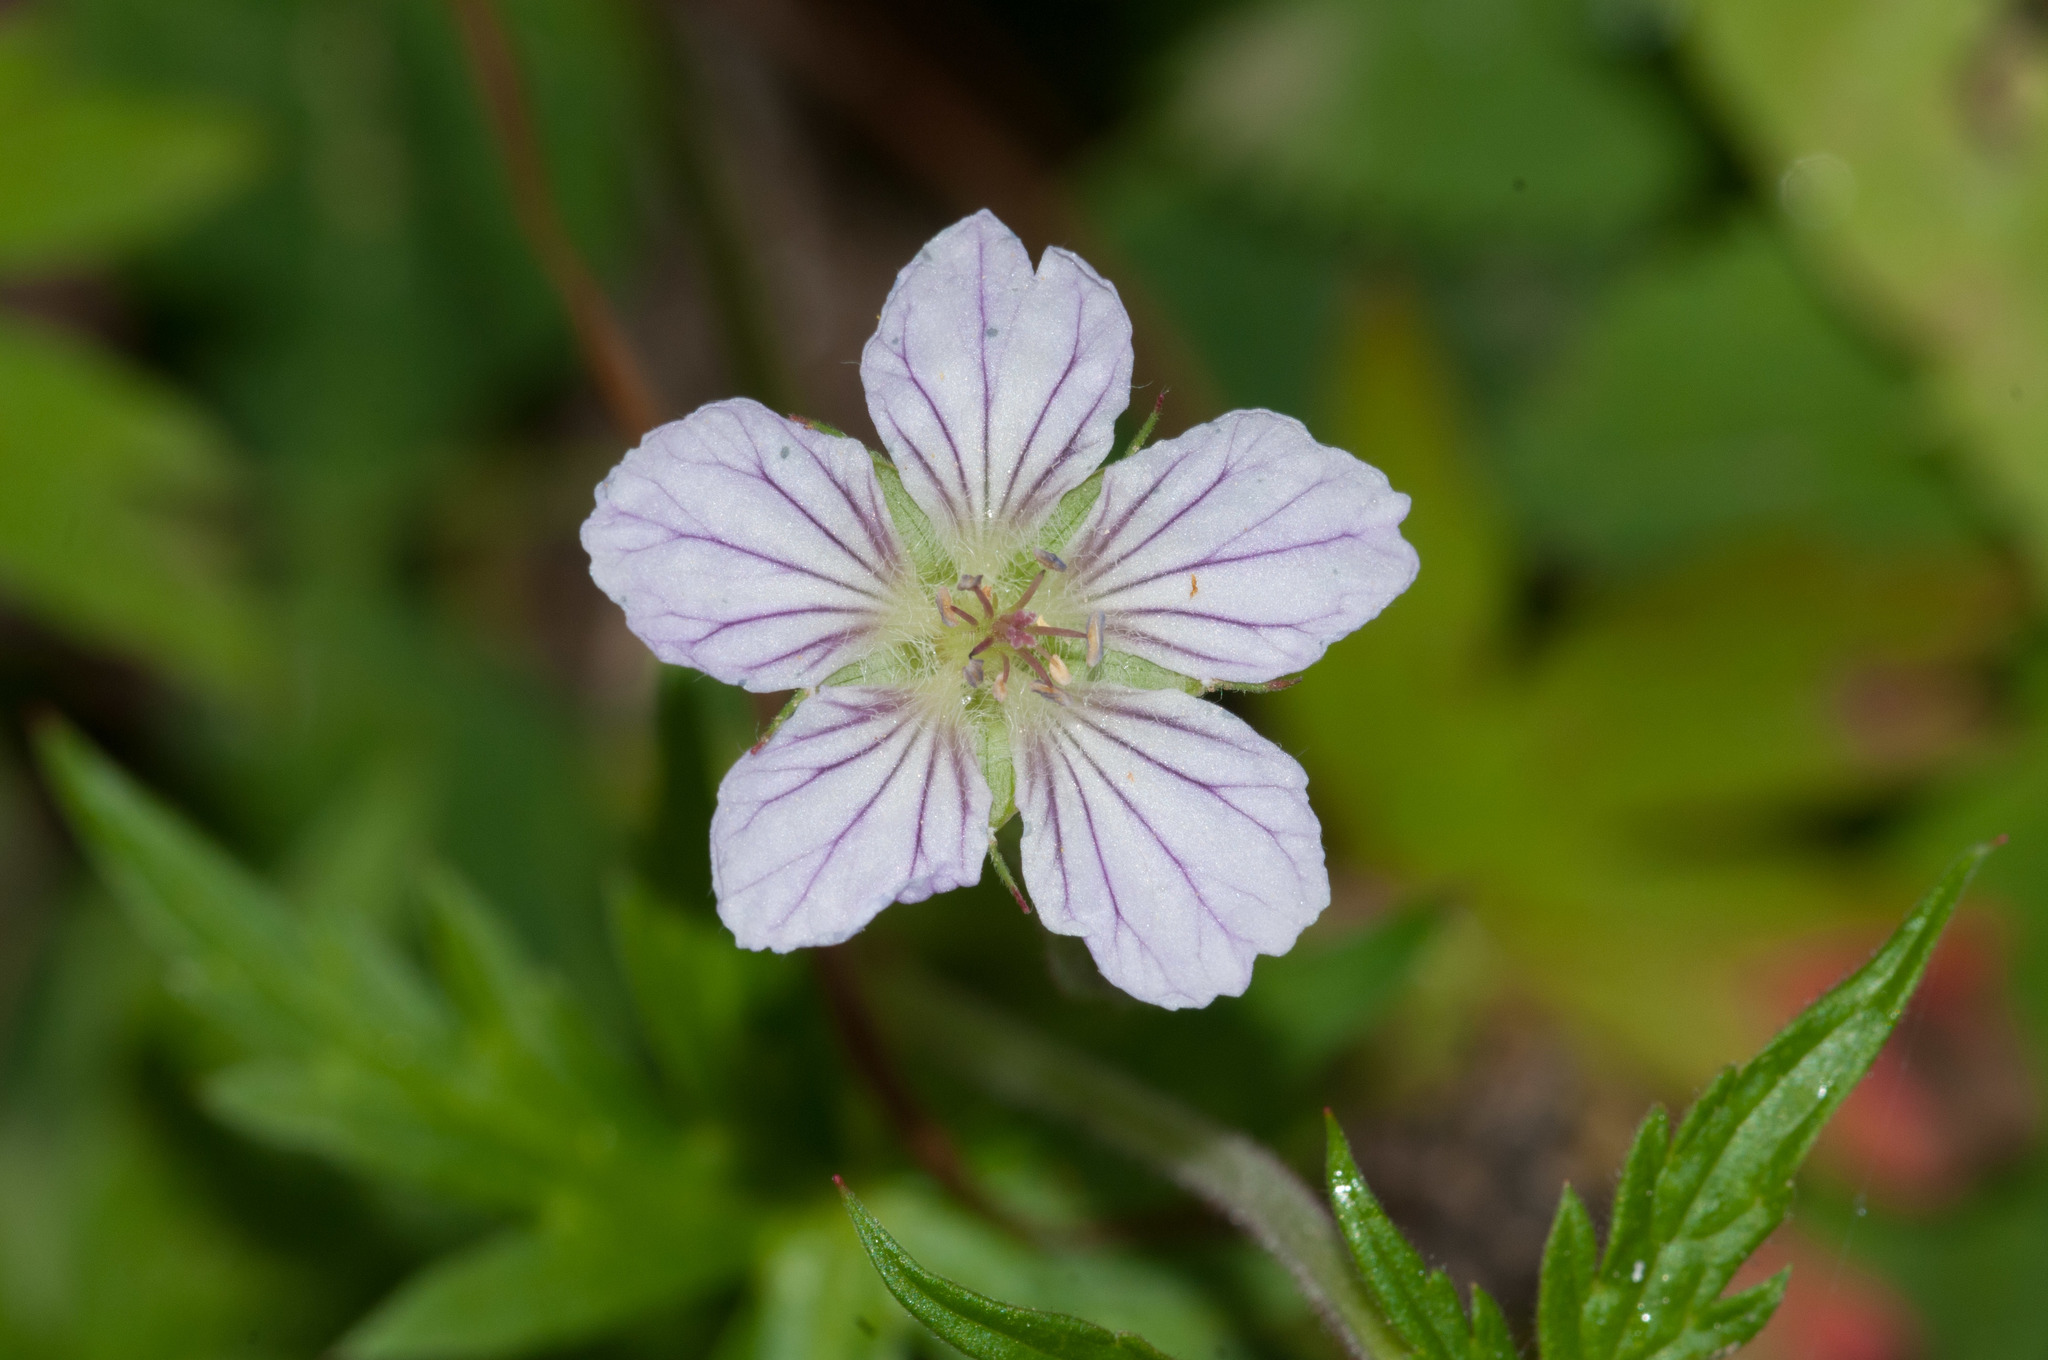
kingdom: Plantae
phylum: Tracheophyta
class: Magnoliopsida
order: Geraniales
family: Geraniaceae
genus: Geranium
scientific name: Geranium richardsonii
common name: Richardson's crane's-bill
